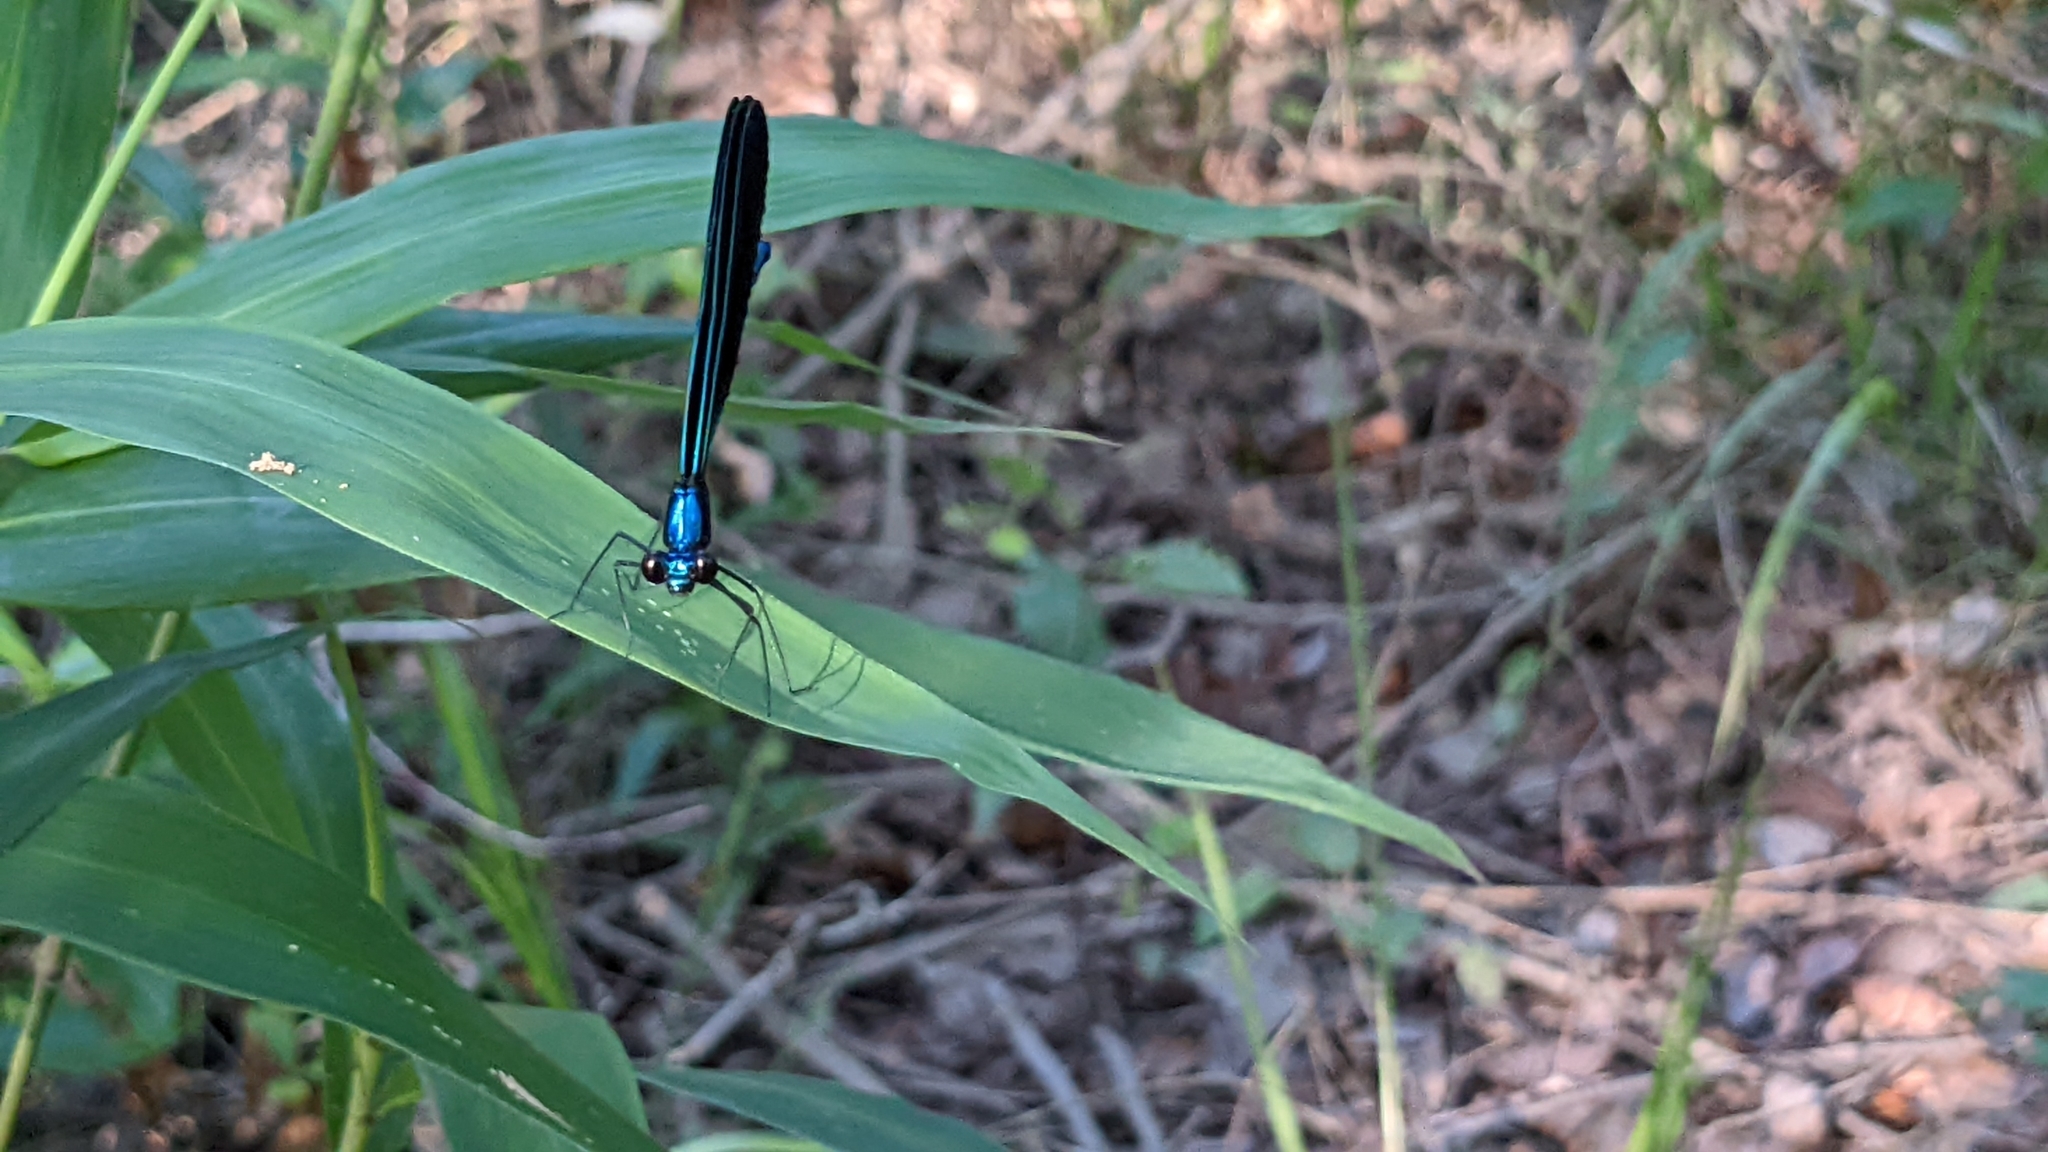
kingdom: Animalia
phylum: Arthropoda
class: Insecta
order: Odonata
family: Calopterygidae
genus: Calopteryx
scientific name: Calopteryx maculata
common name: Ebony jewelwing
